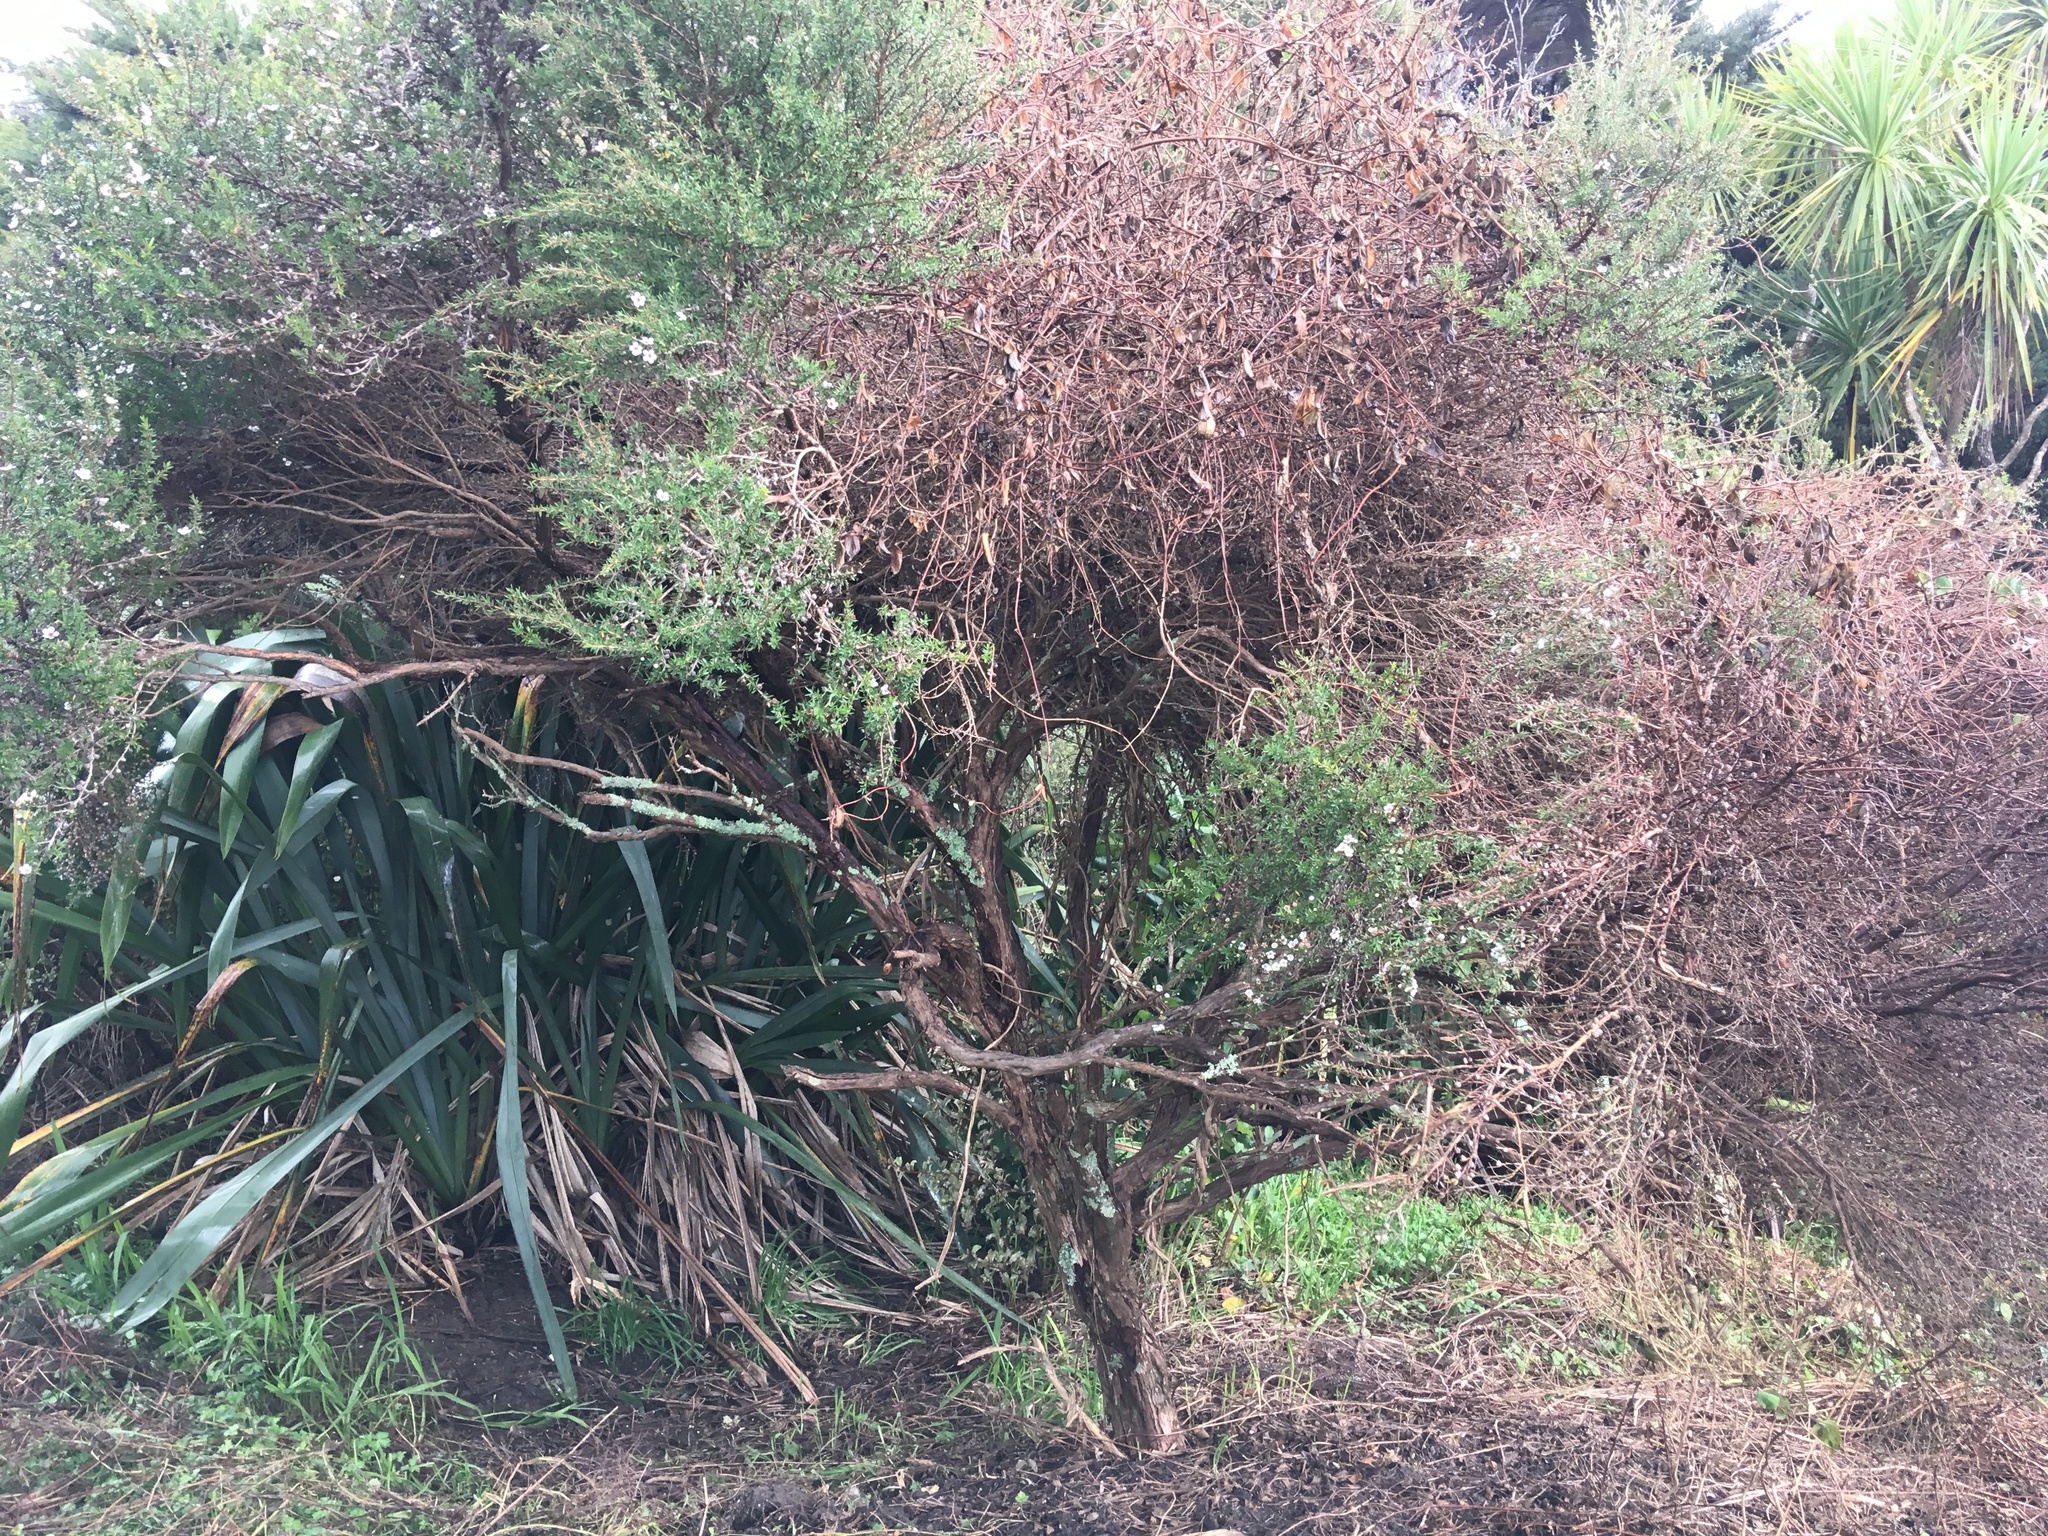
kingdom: Plantae
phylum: Tracheophyta
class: Magnoliopsida
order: Myrtales
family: Myrtaceae
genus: Leptospermum
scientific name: Leptospermum scoparium
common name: Broom tea-tree
